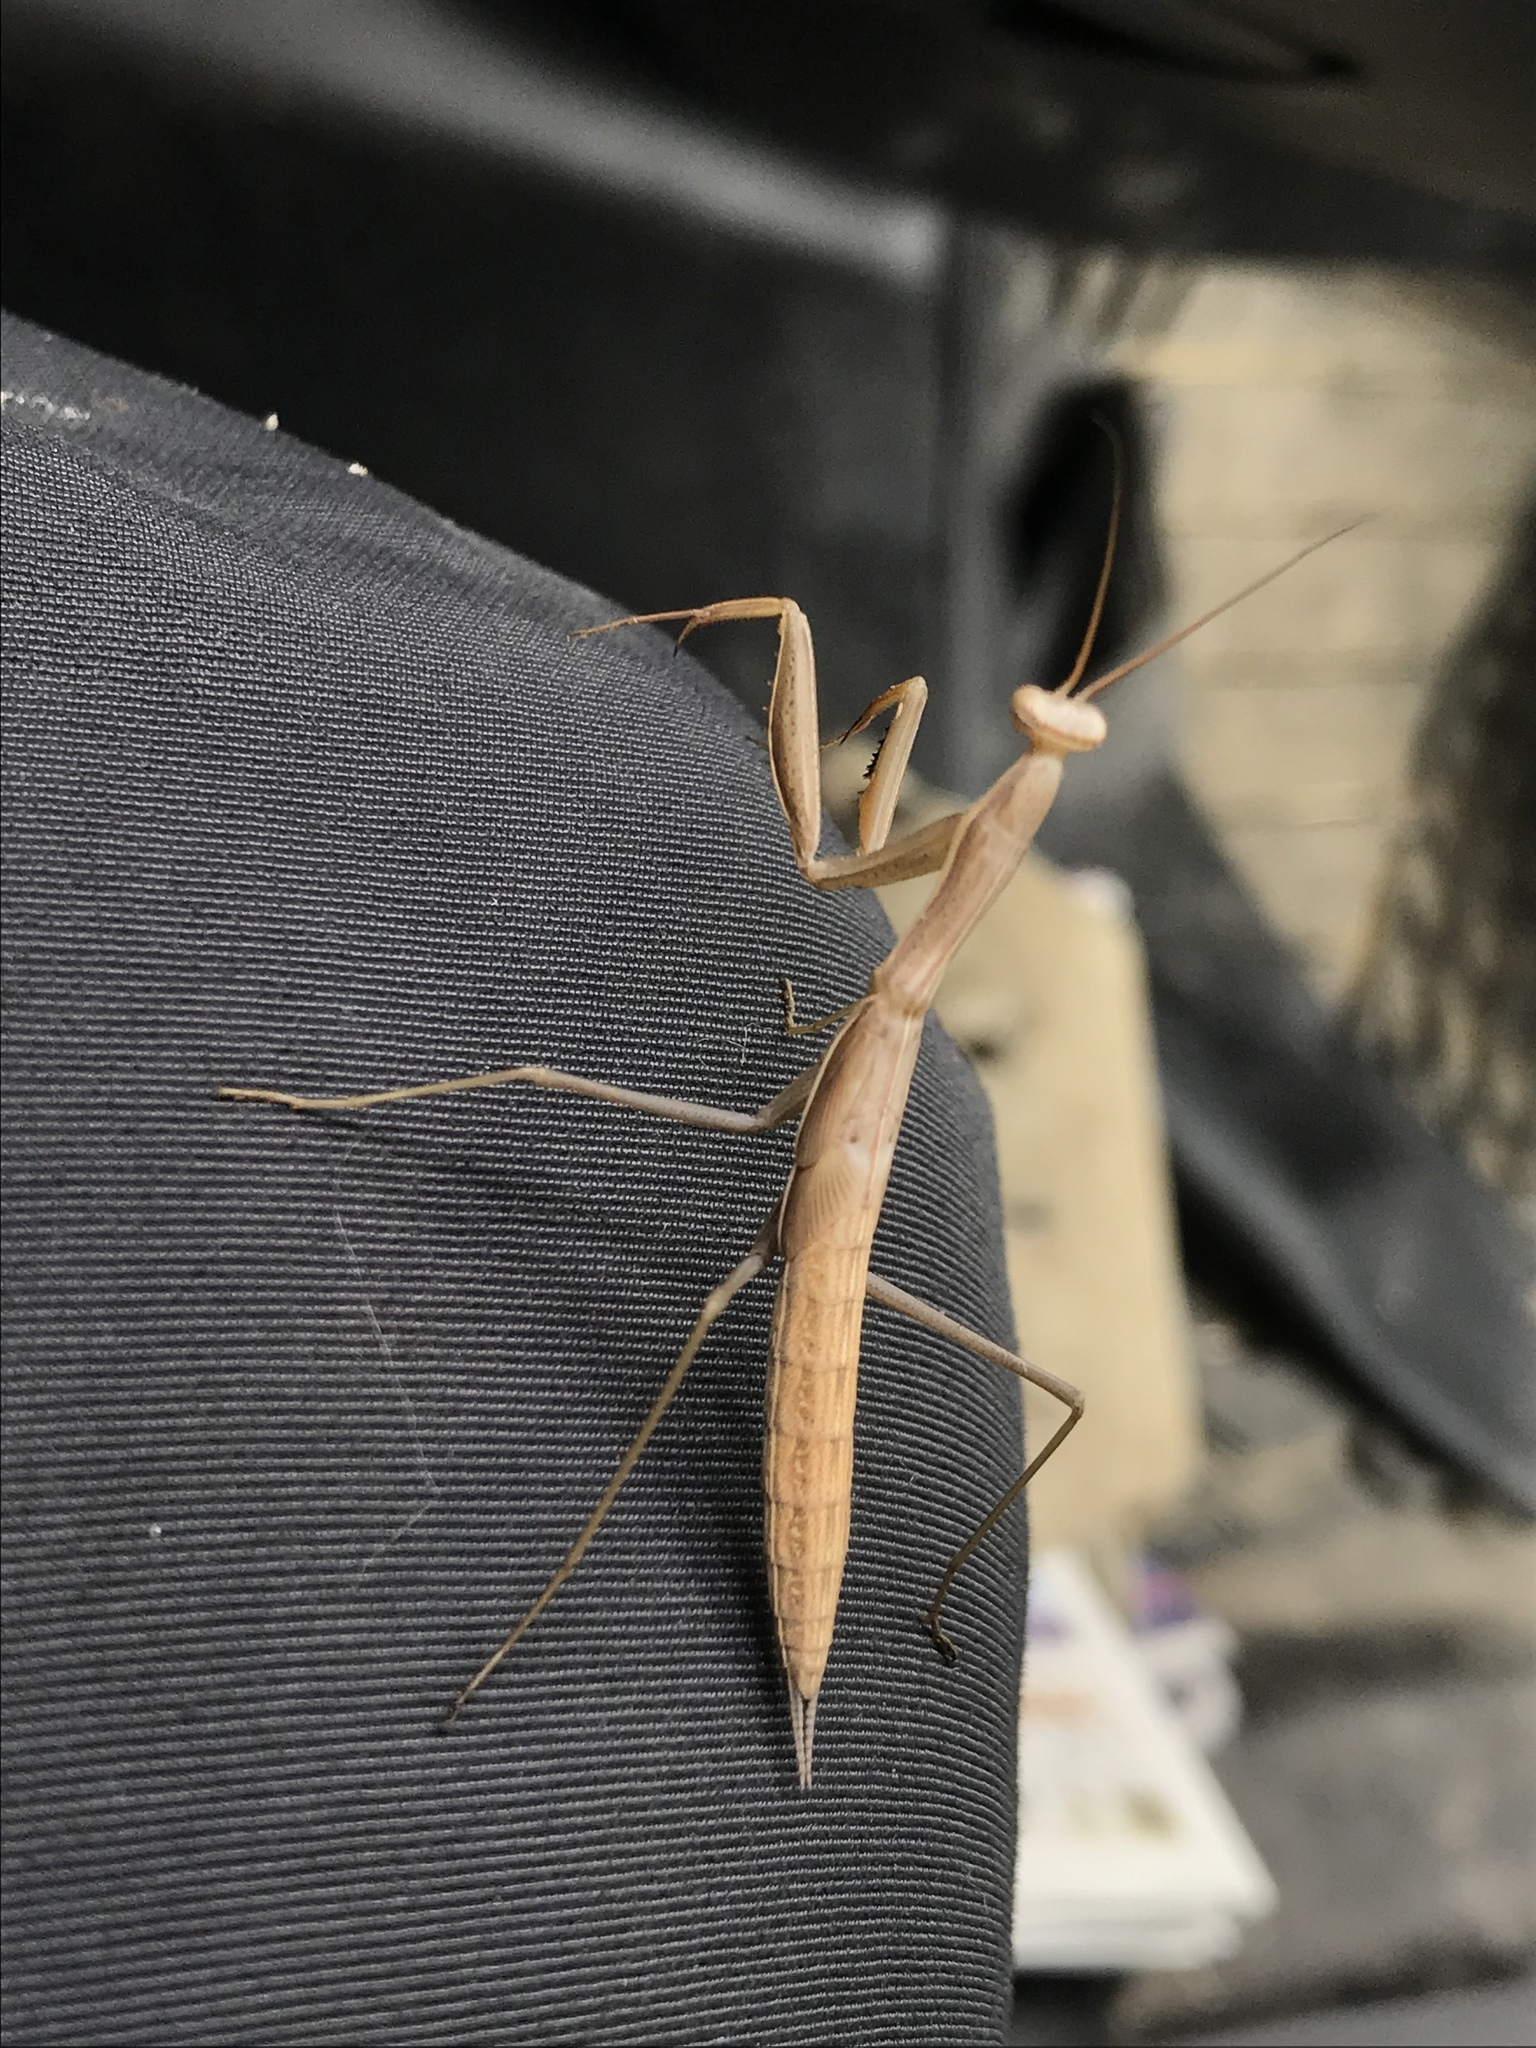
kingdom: Animalia
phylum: Arthropoda
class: Insecta
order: Mantodea
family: Mantidae
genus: Mantis
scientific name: Mantis religiosa
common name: Praying mantis
